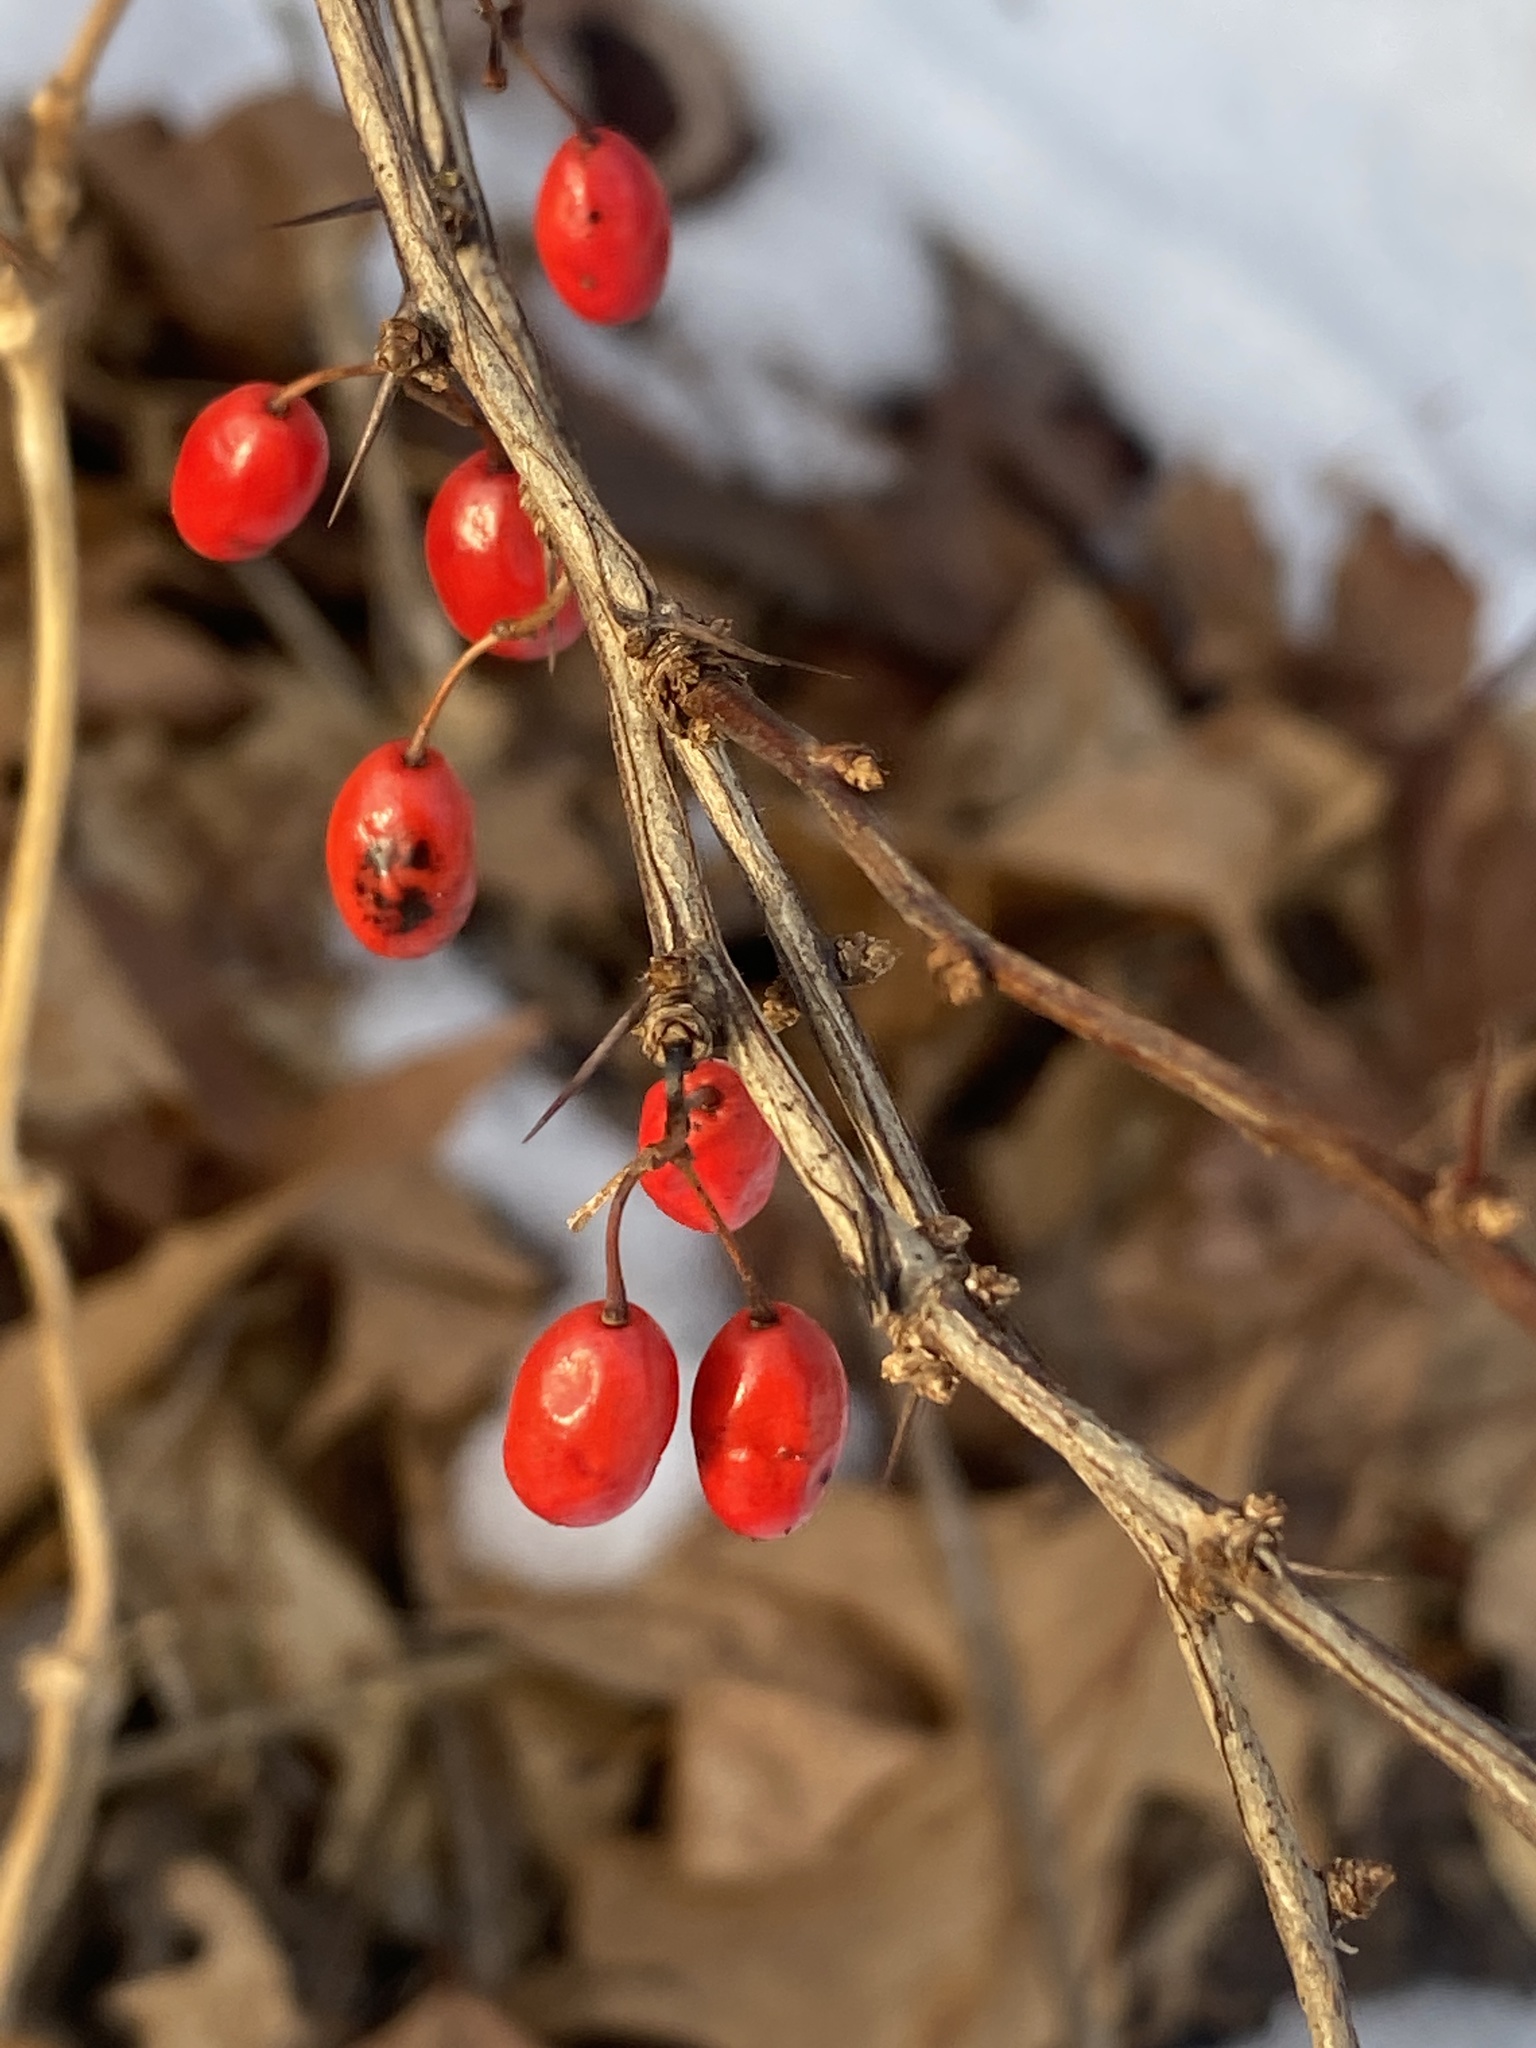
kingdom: Plantae
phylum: Tracheophyta
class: Magnoliopsida
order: Ranunculales
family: Berberidaceae
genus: Berberis
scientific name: Berberis thunbergii
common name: Japanese barberry
